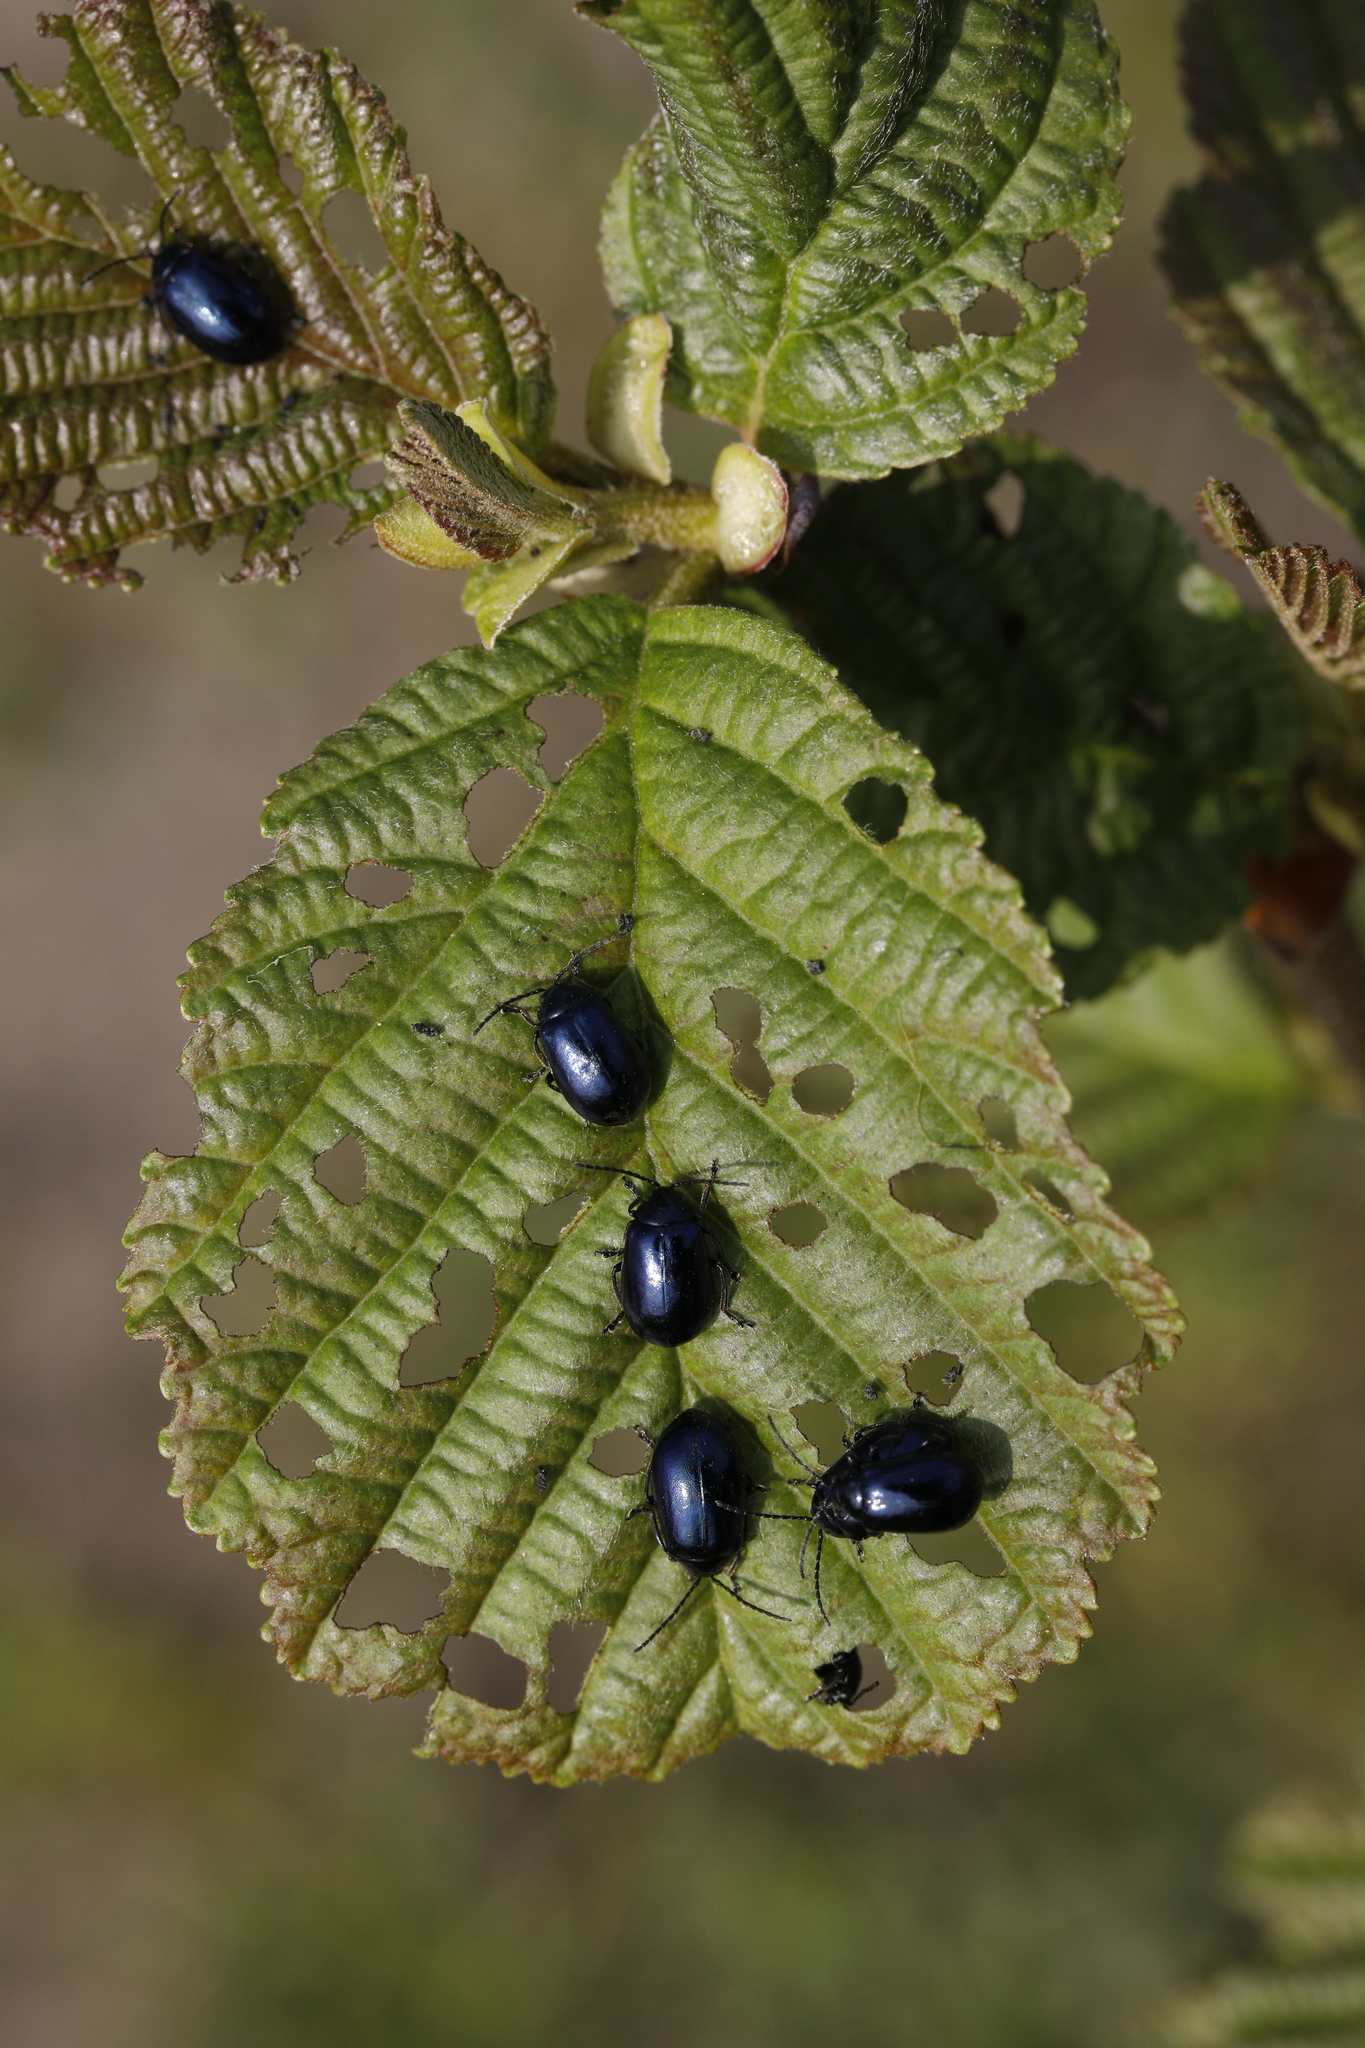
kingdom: Plantae
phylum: Tracheophyta
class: Magnoliopsida
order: Fagales
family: Betulaceae
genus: Alnus
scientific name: Alnus glutinosa
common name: Black alder
